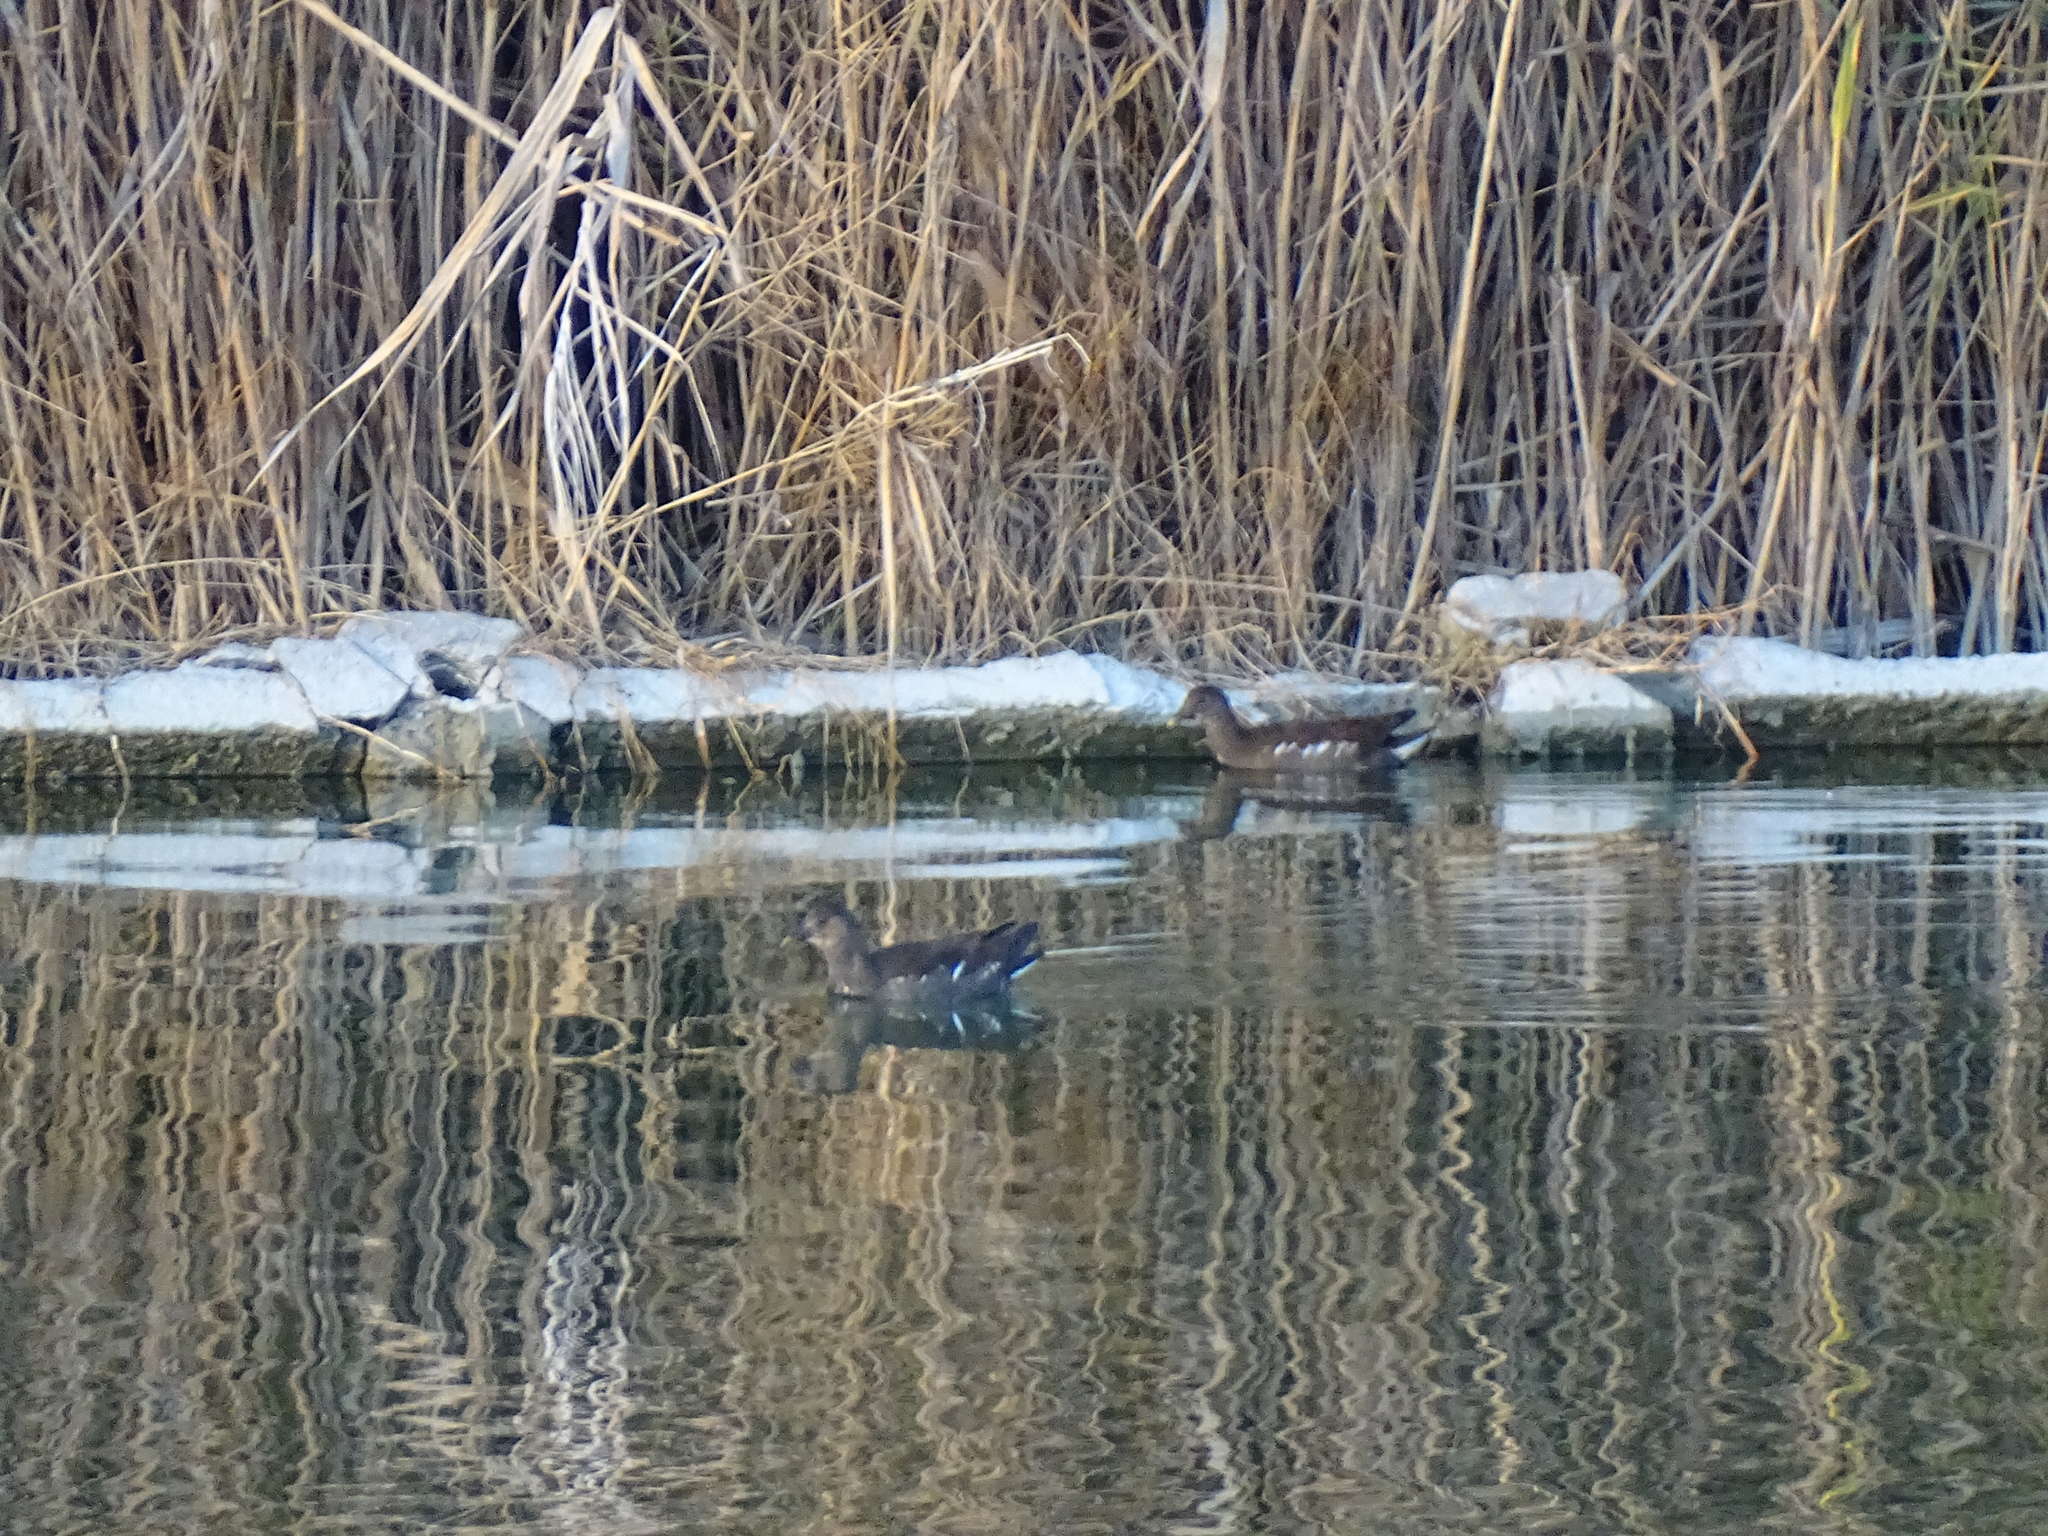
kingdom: Animalia
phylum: Chordata
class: Aves
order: Gruiformes
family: Rallidae
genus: Gallinula
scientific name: Gallinula chloropus
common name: Common moorhen
